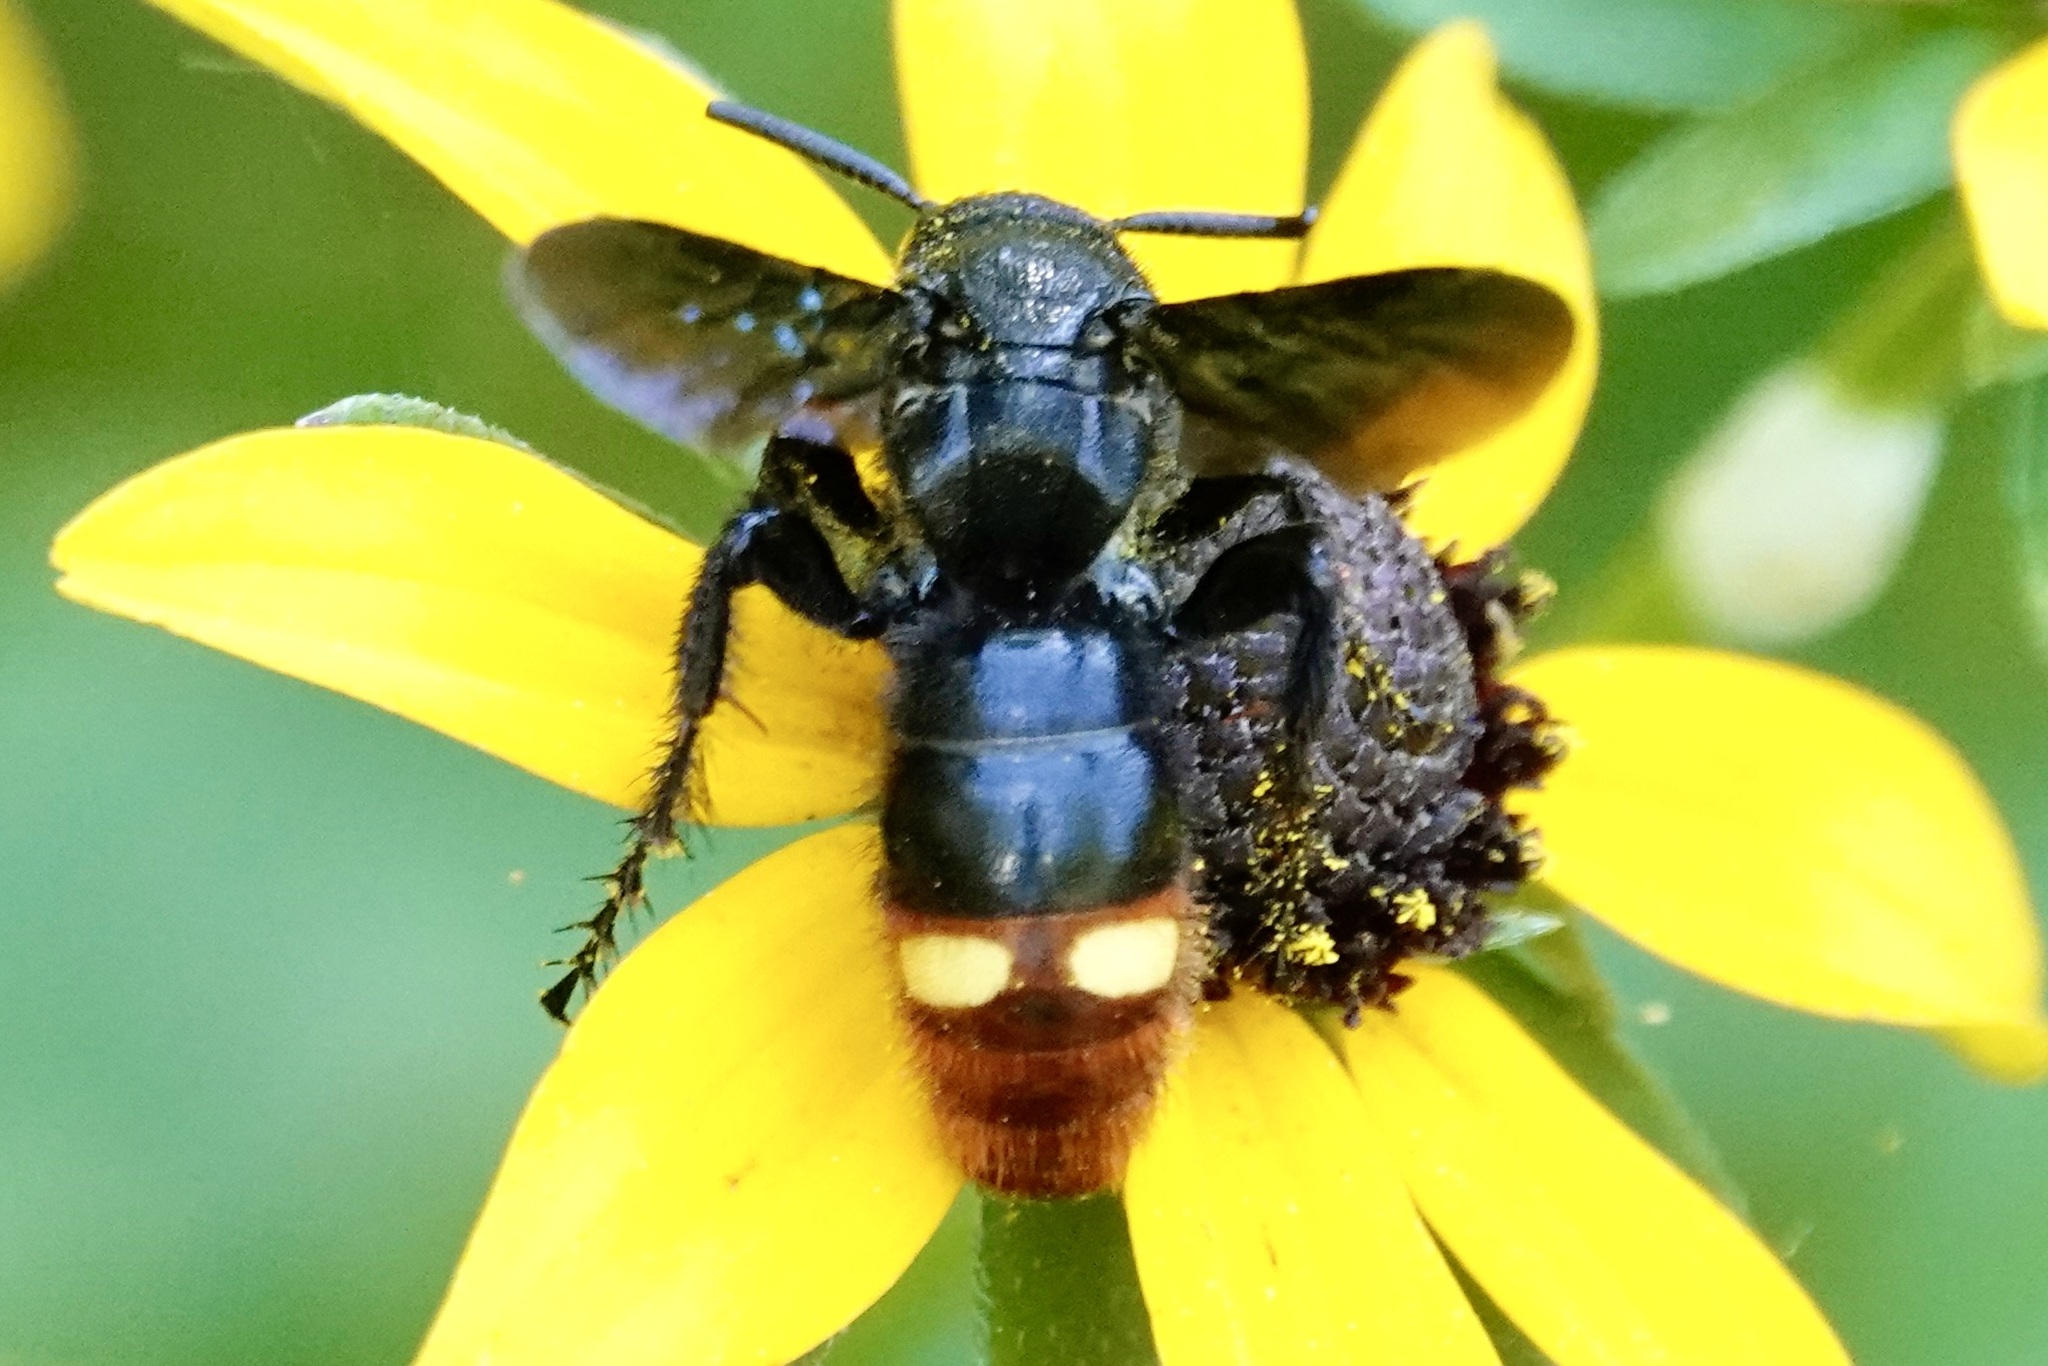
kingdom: Animalia
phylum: Arthropoda
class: Insecta
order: Hymenoptera
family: Scoliidae
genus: Scolia
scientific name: Scolia dubia
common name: Blue-winged scoliid wasp
